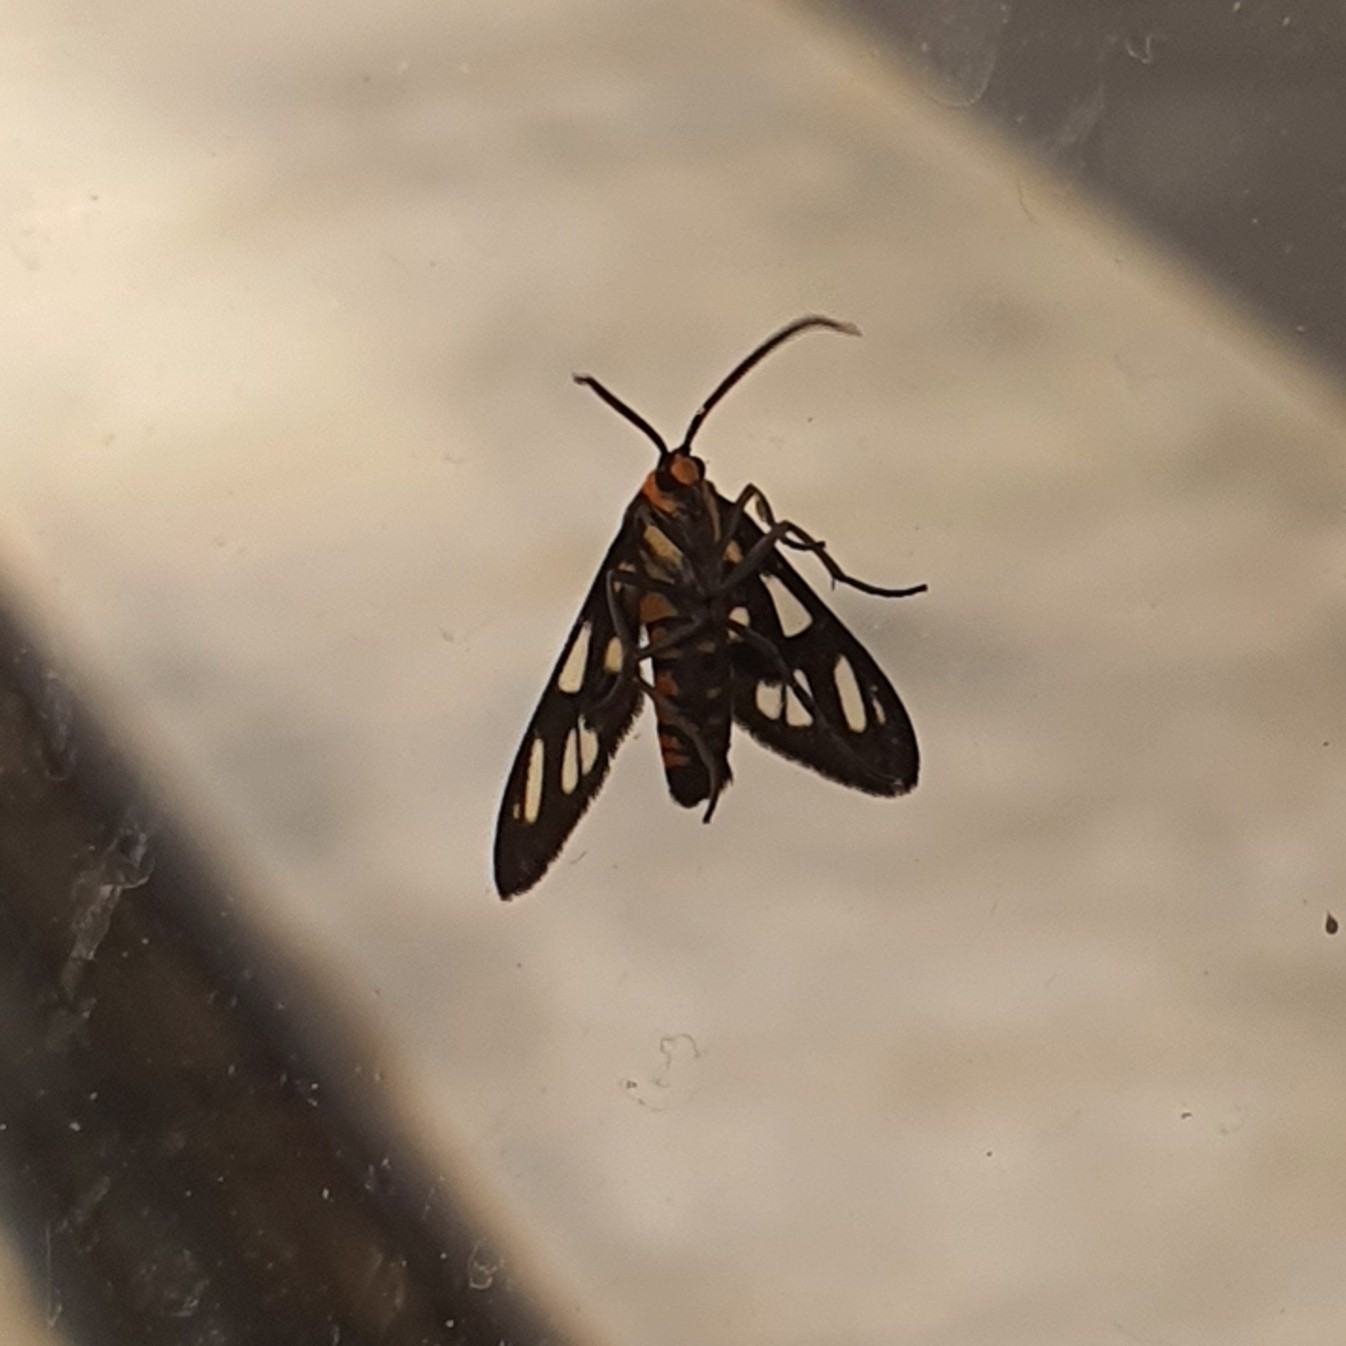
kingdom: Animalia
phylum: Arthropoda
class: Insecta
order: Lepidoptera
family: Erebidae
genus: Amata
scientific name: Amata huebneri
